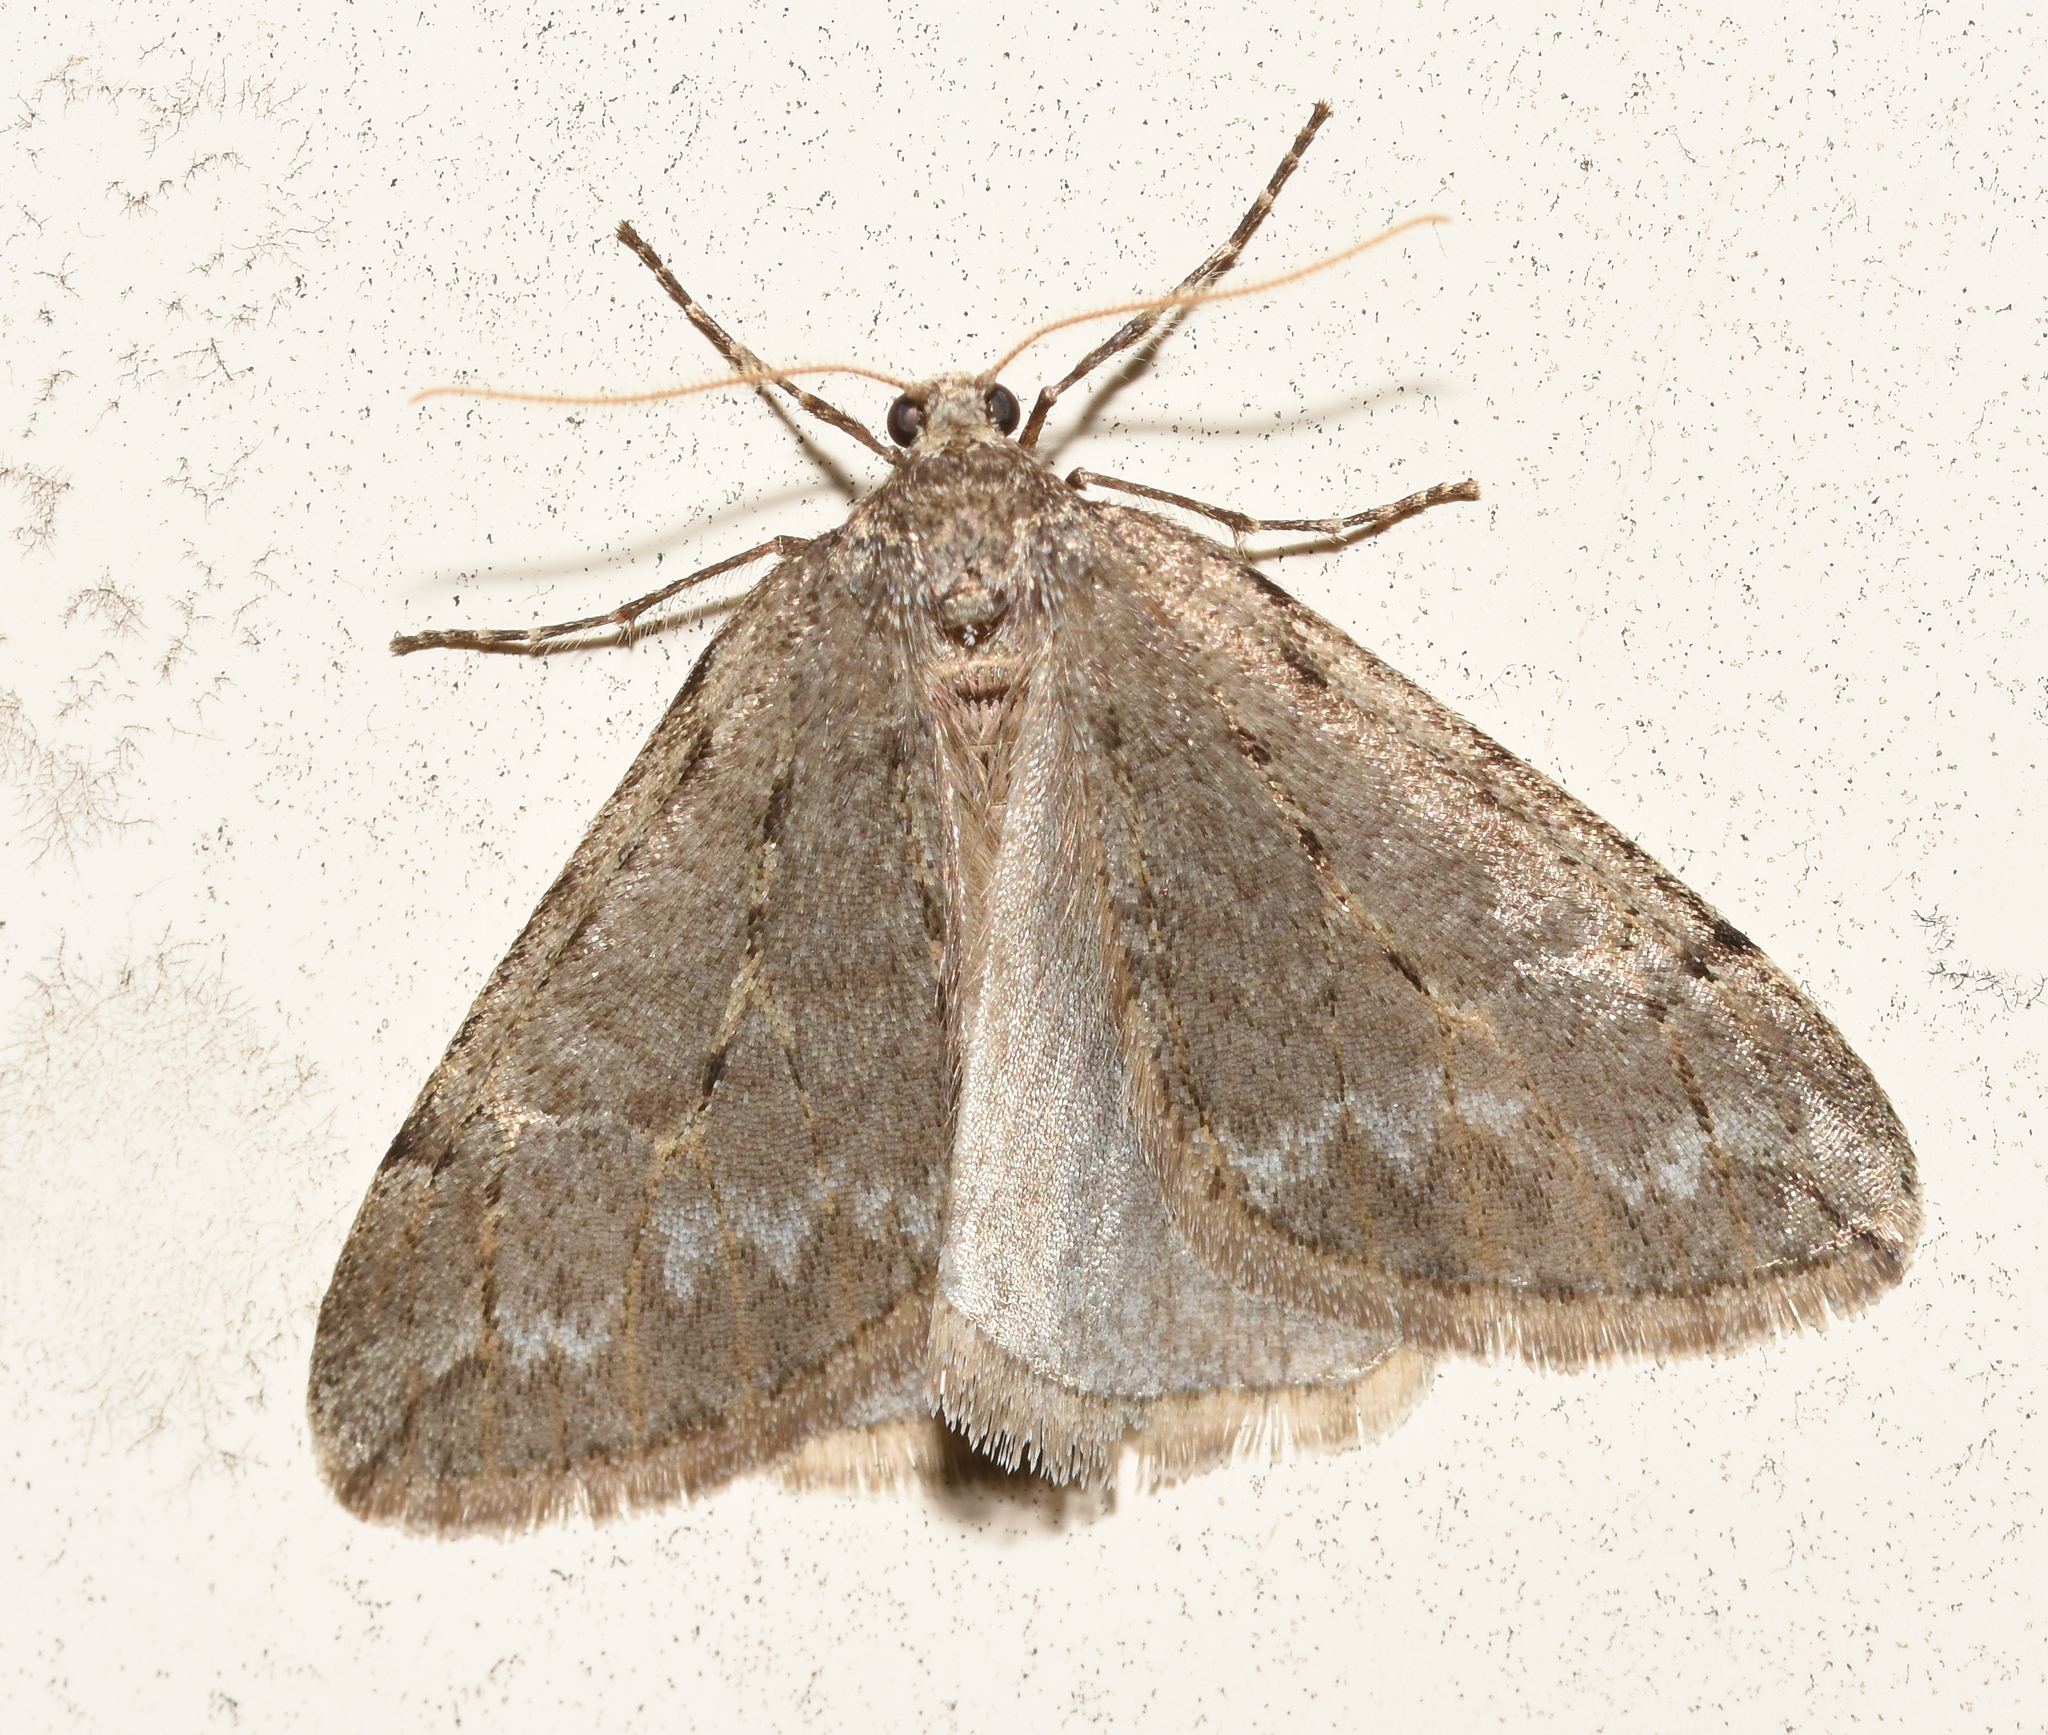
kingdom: Animalia
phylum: Arthropoda
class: Insecta
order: Lepidoptera
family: Geometridae
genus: Paleacrita
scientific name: Paleacrita vernata
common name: Spring cankerworm
